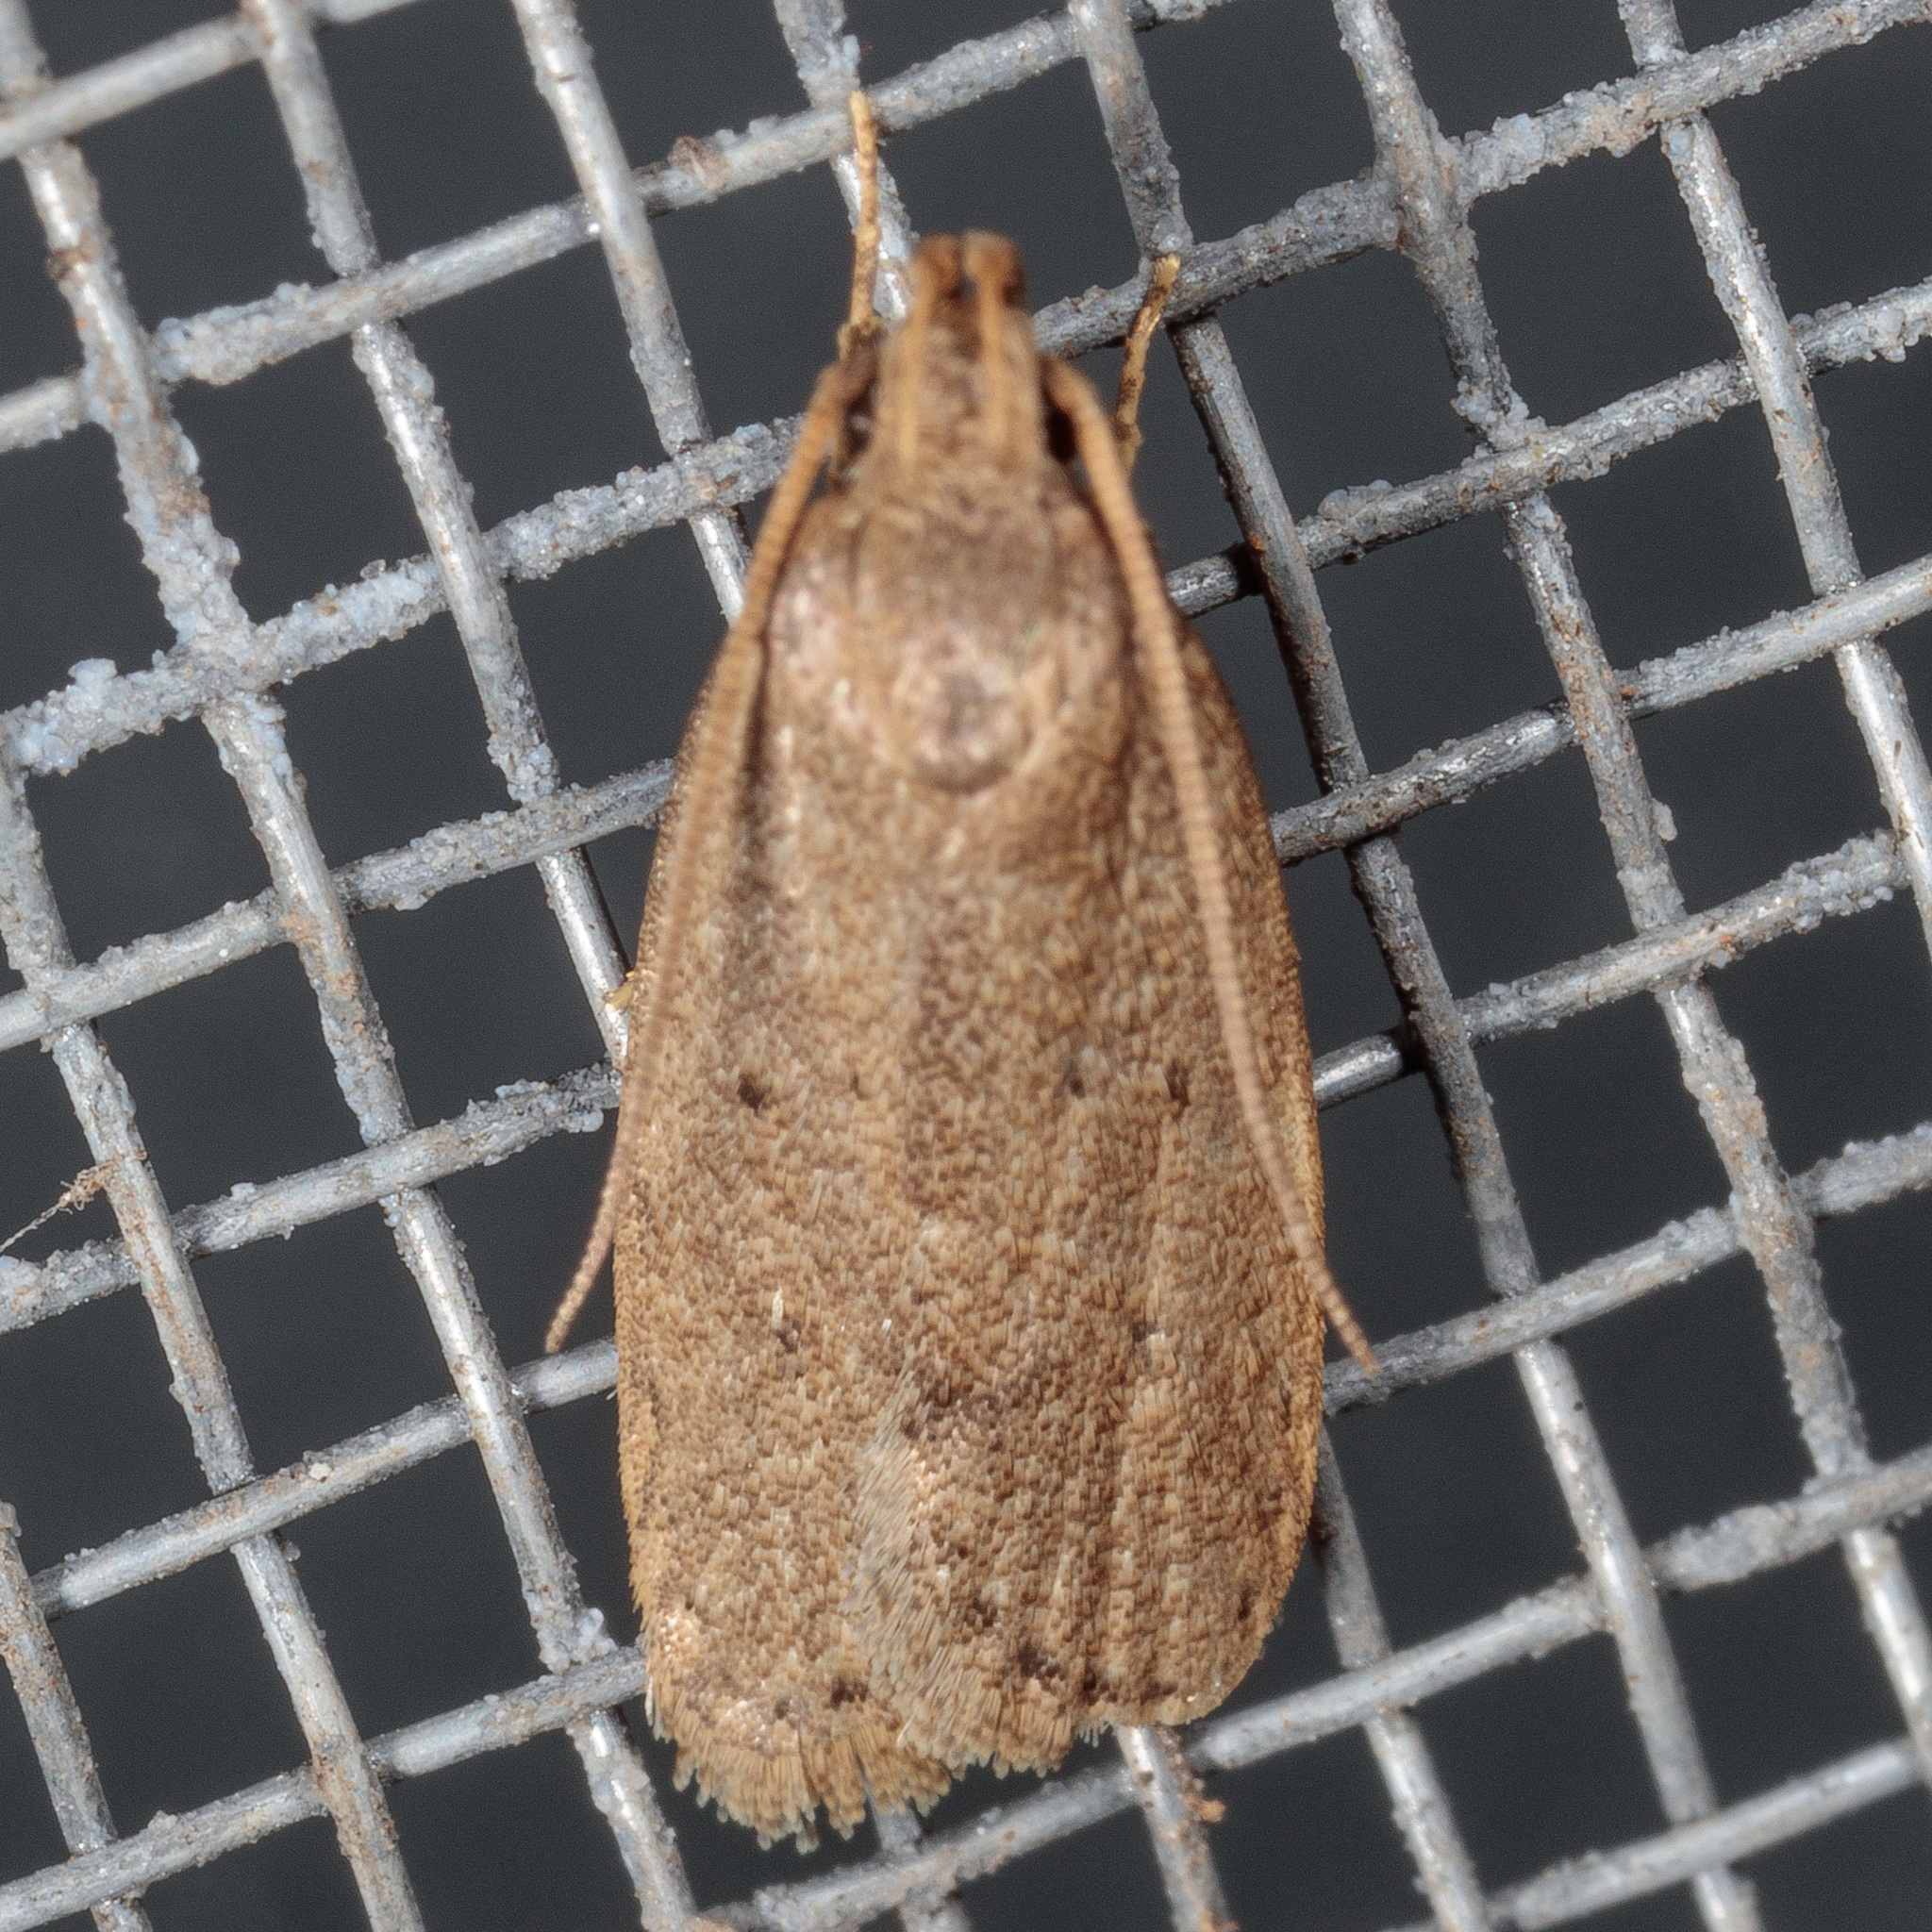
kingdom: Animalia
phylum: Arthropoda
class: Insecta
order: Lepidoptera
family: Autostichidae
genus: Autosticha
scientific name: Autosticha kyotensis
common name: Kyoto moth
